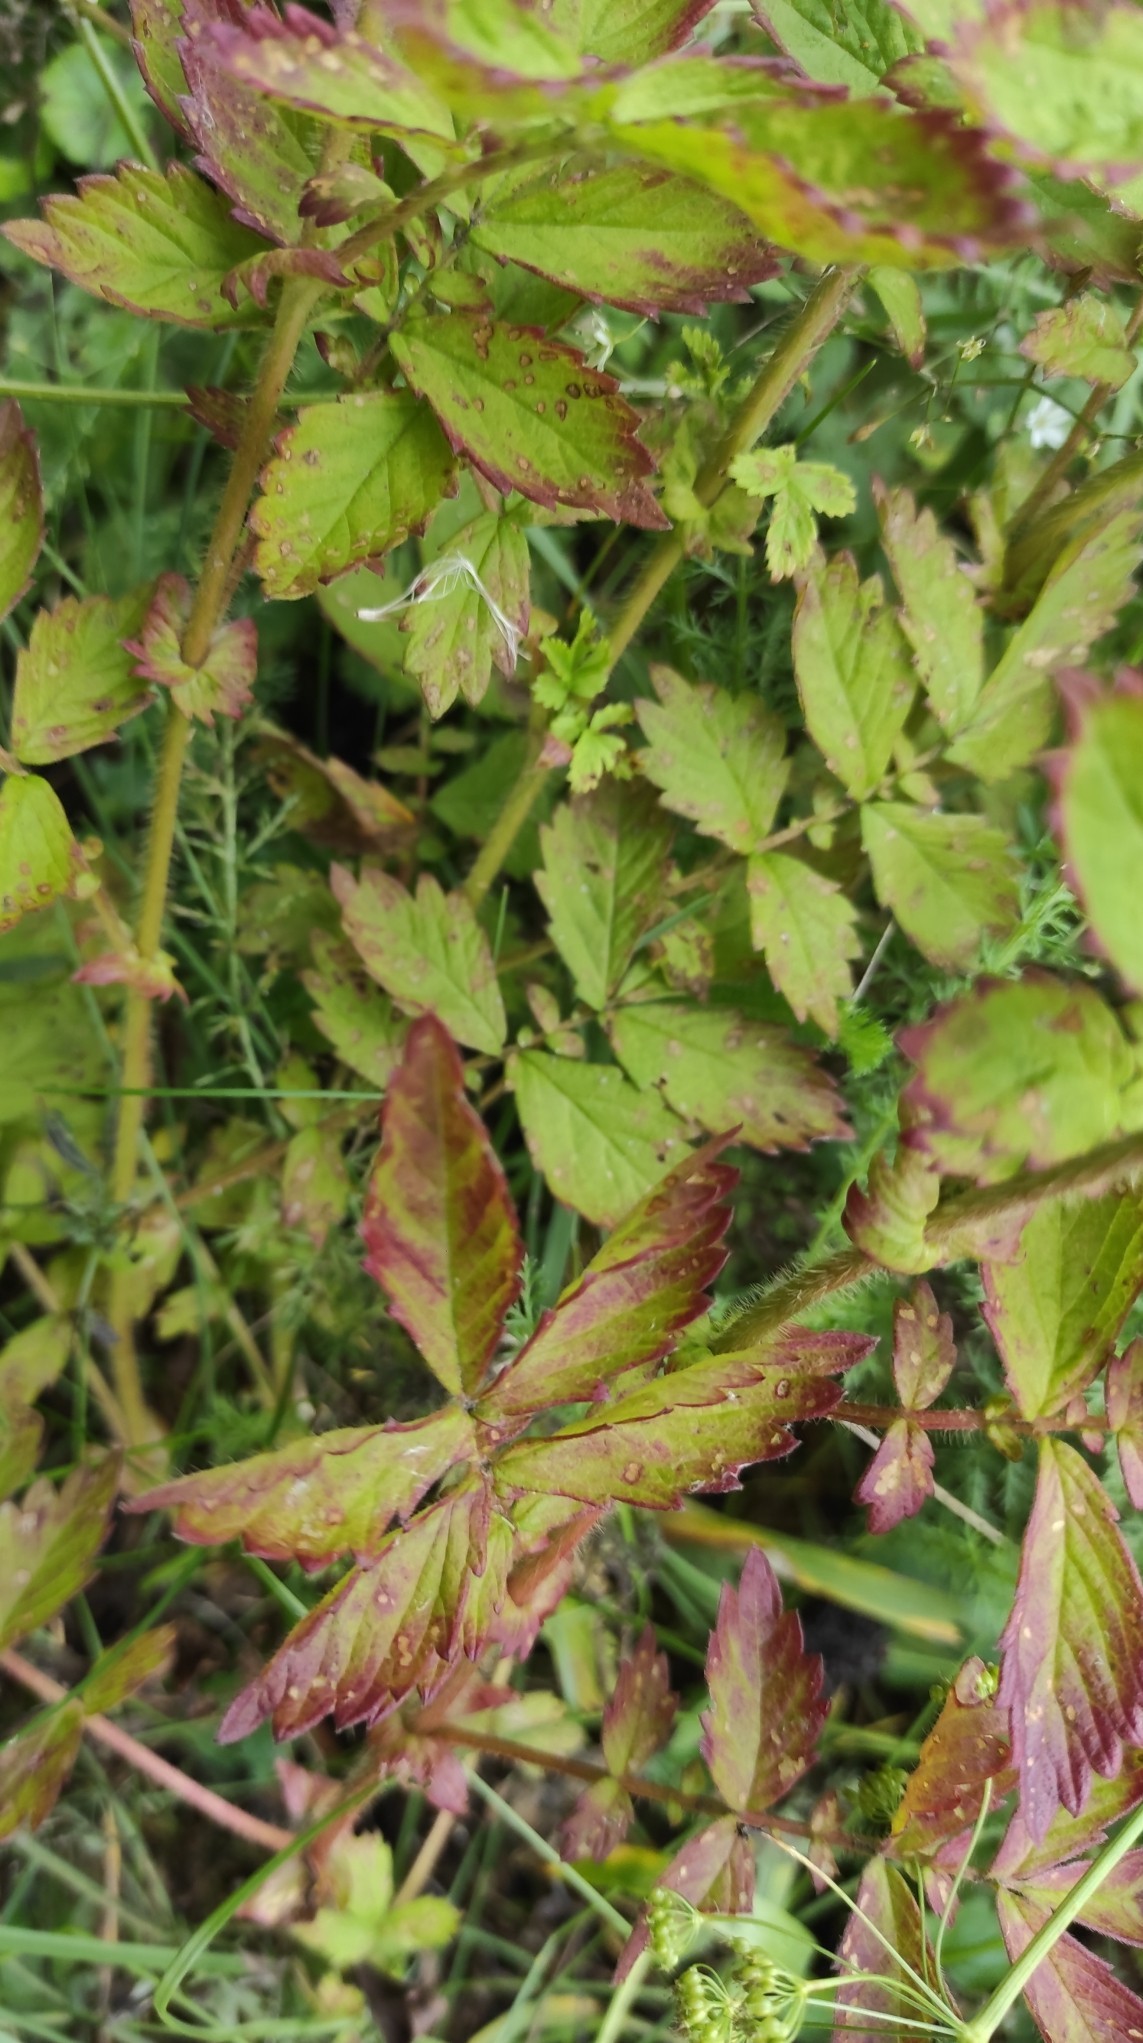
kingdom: Plantae
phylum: Tracheophyta
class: Magnoliopsida
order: Rosales
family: Rosaceae
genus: Agrimonia
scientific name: Agrimonia pilosa
